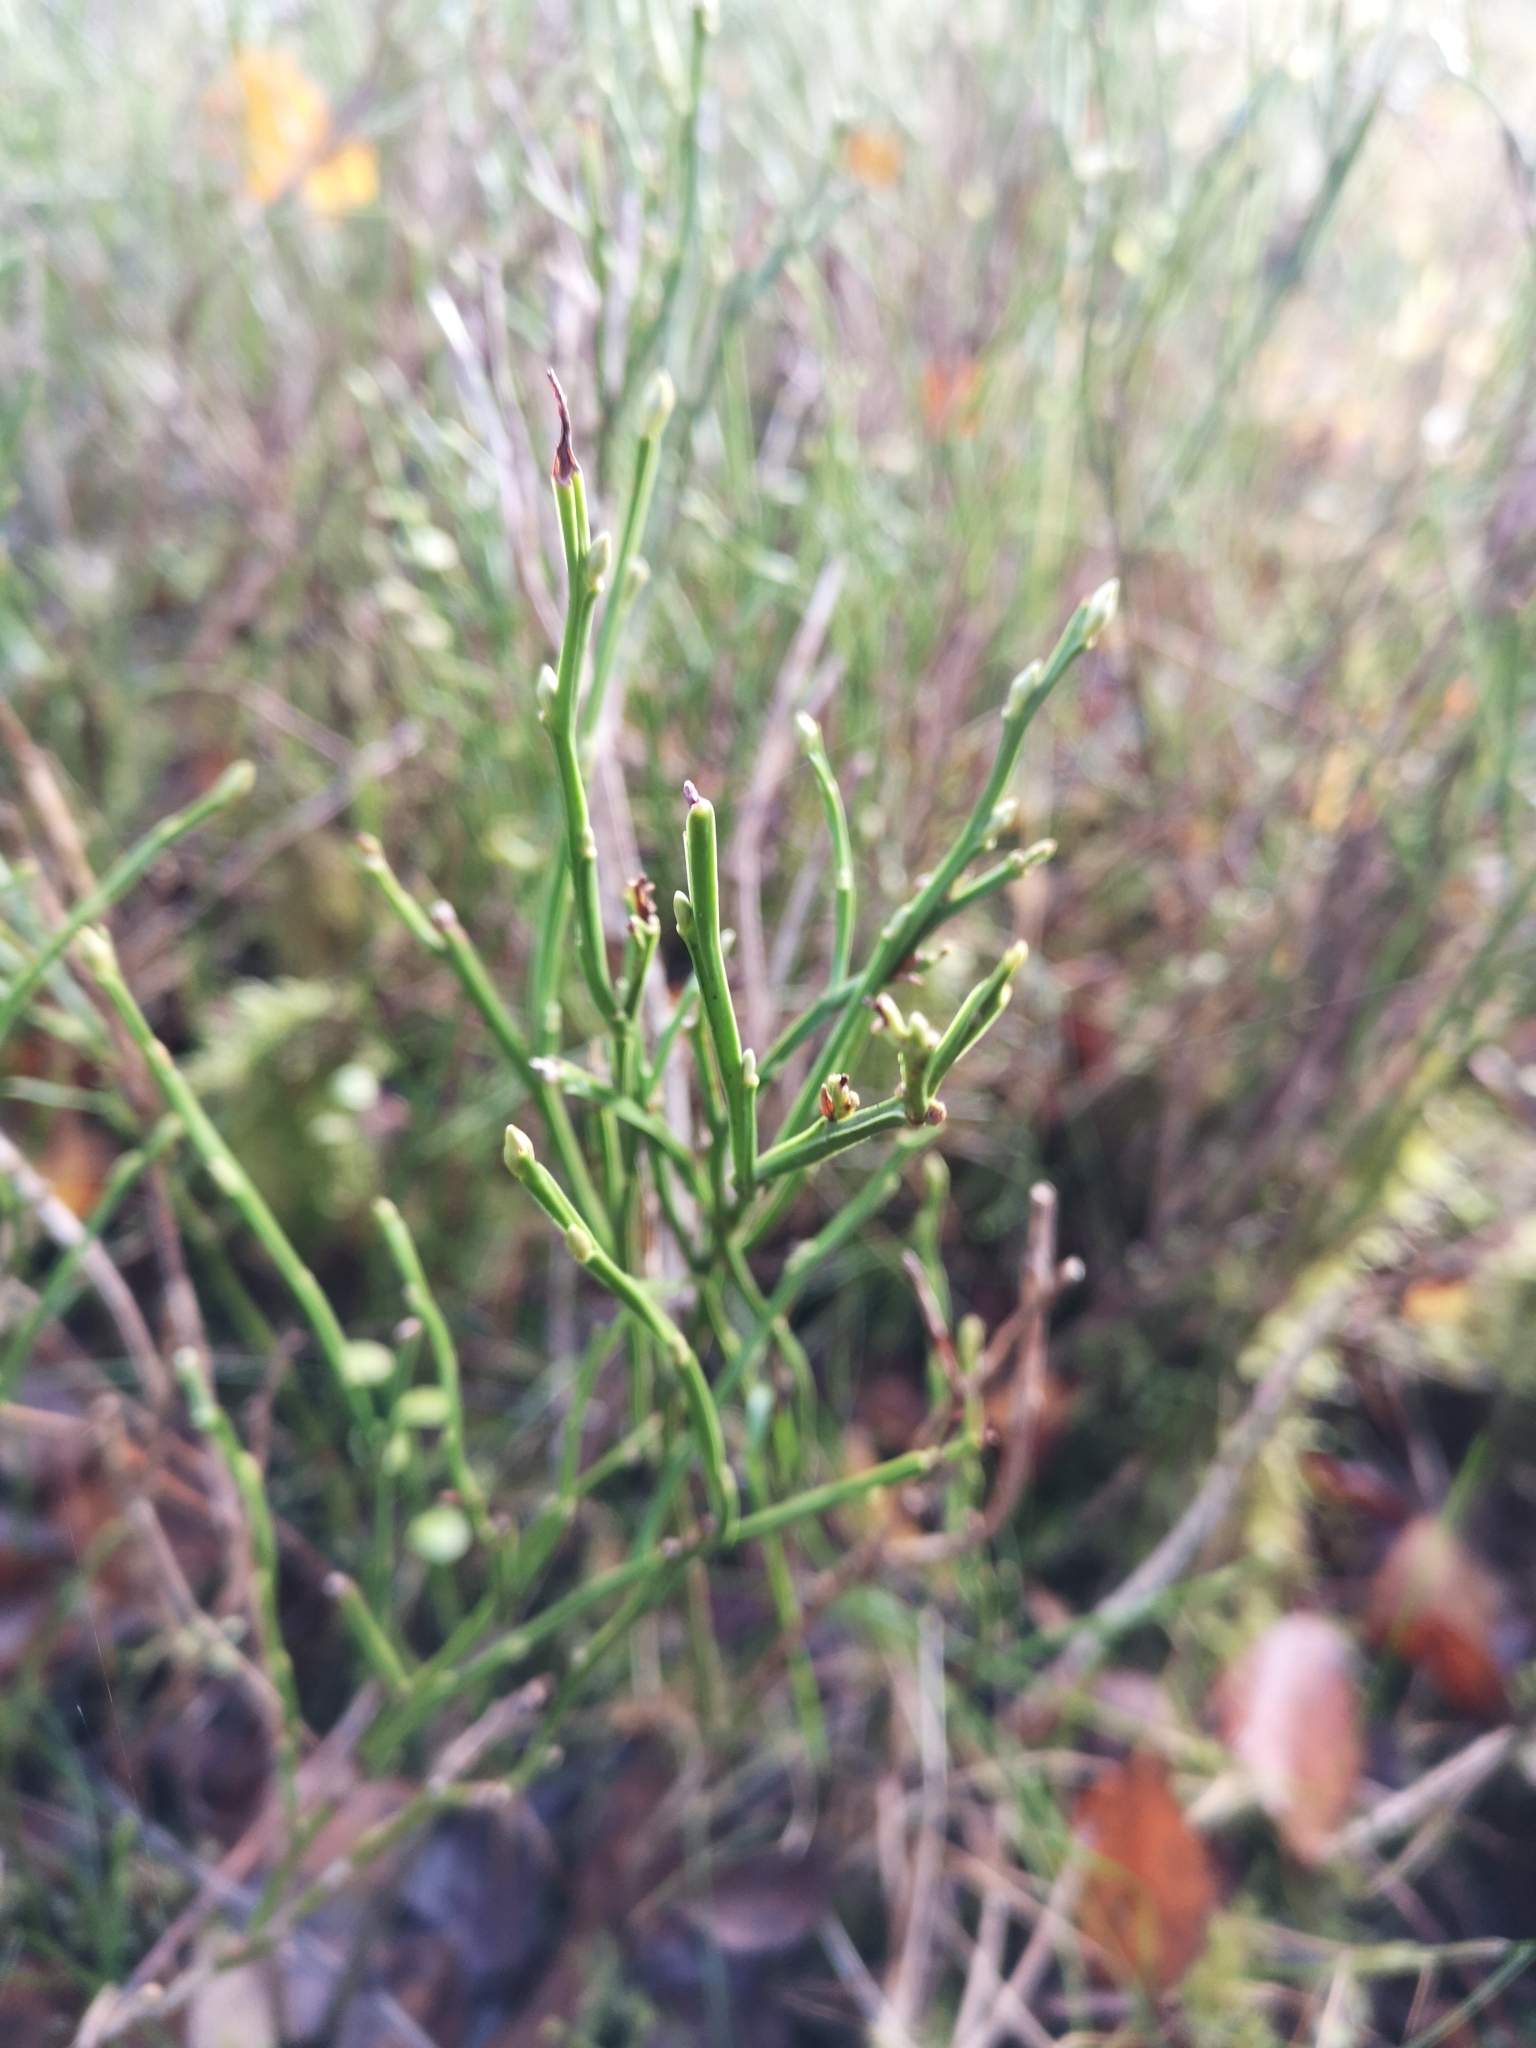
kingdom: Plantae
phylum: Tracheophyta
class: Magnoliopsida
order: Ericales
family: Ericaceae
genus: Vaccinium
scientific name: Vaccinium myrtillus
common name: Bilberry
